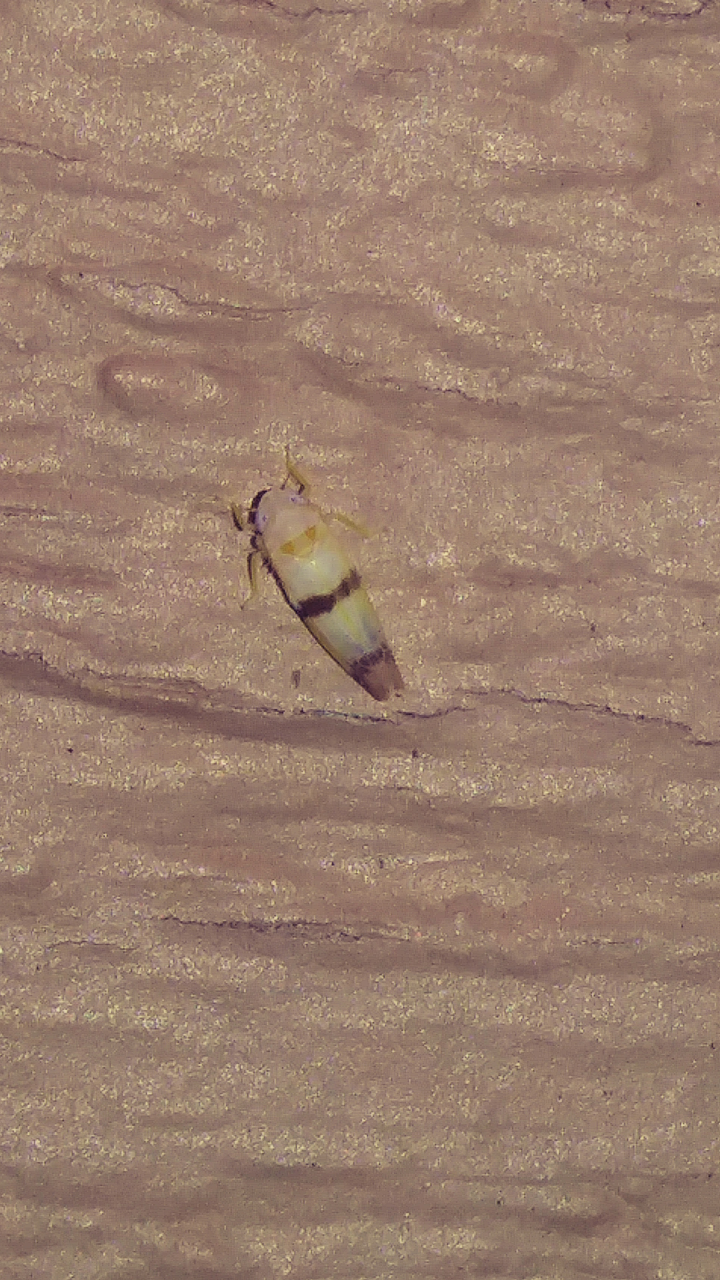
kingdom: Animalia
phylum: Arthropoda
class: Insecta
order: Hemiptera
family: Cicadellidae
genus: Empoa
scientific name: Empoa gillettei
